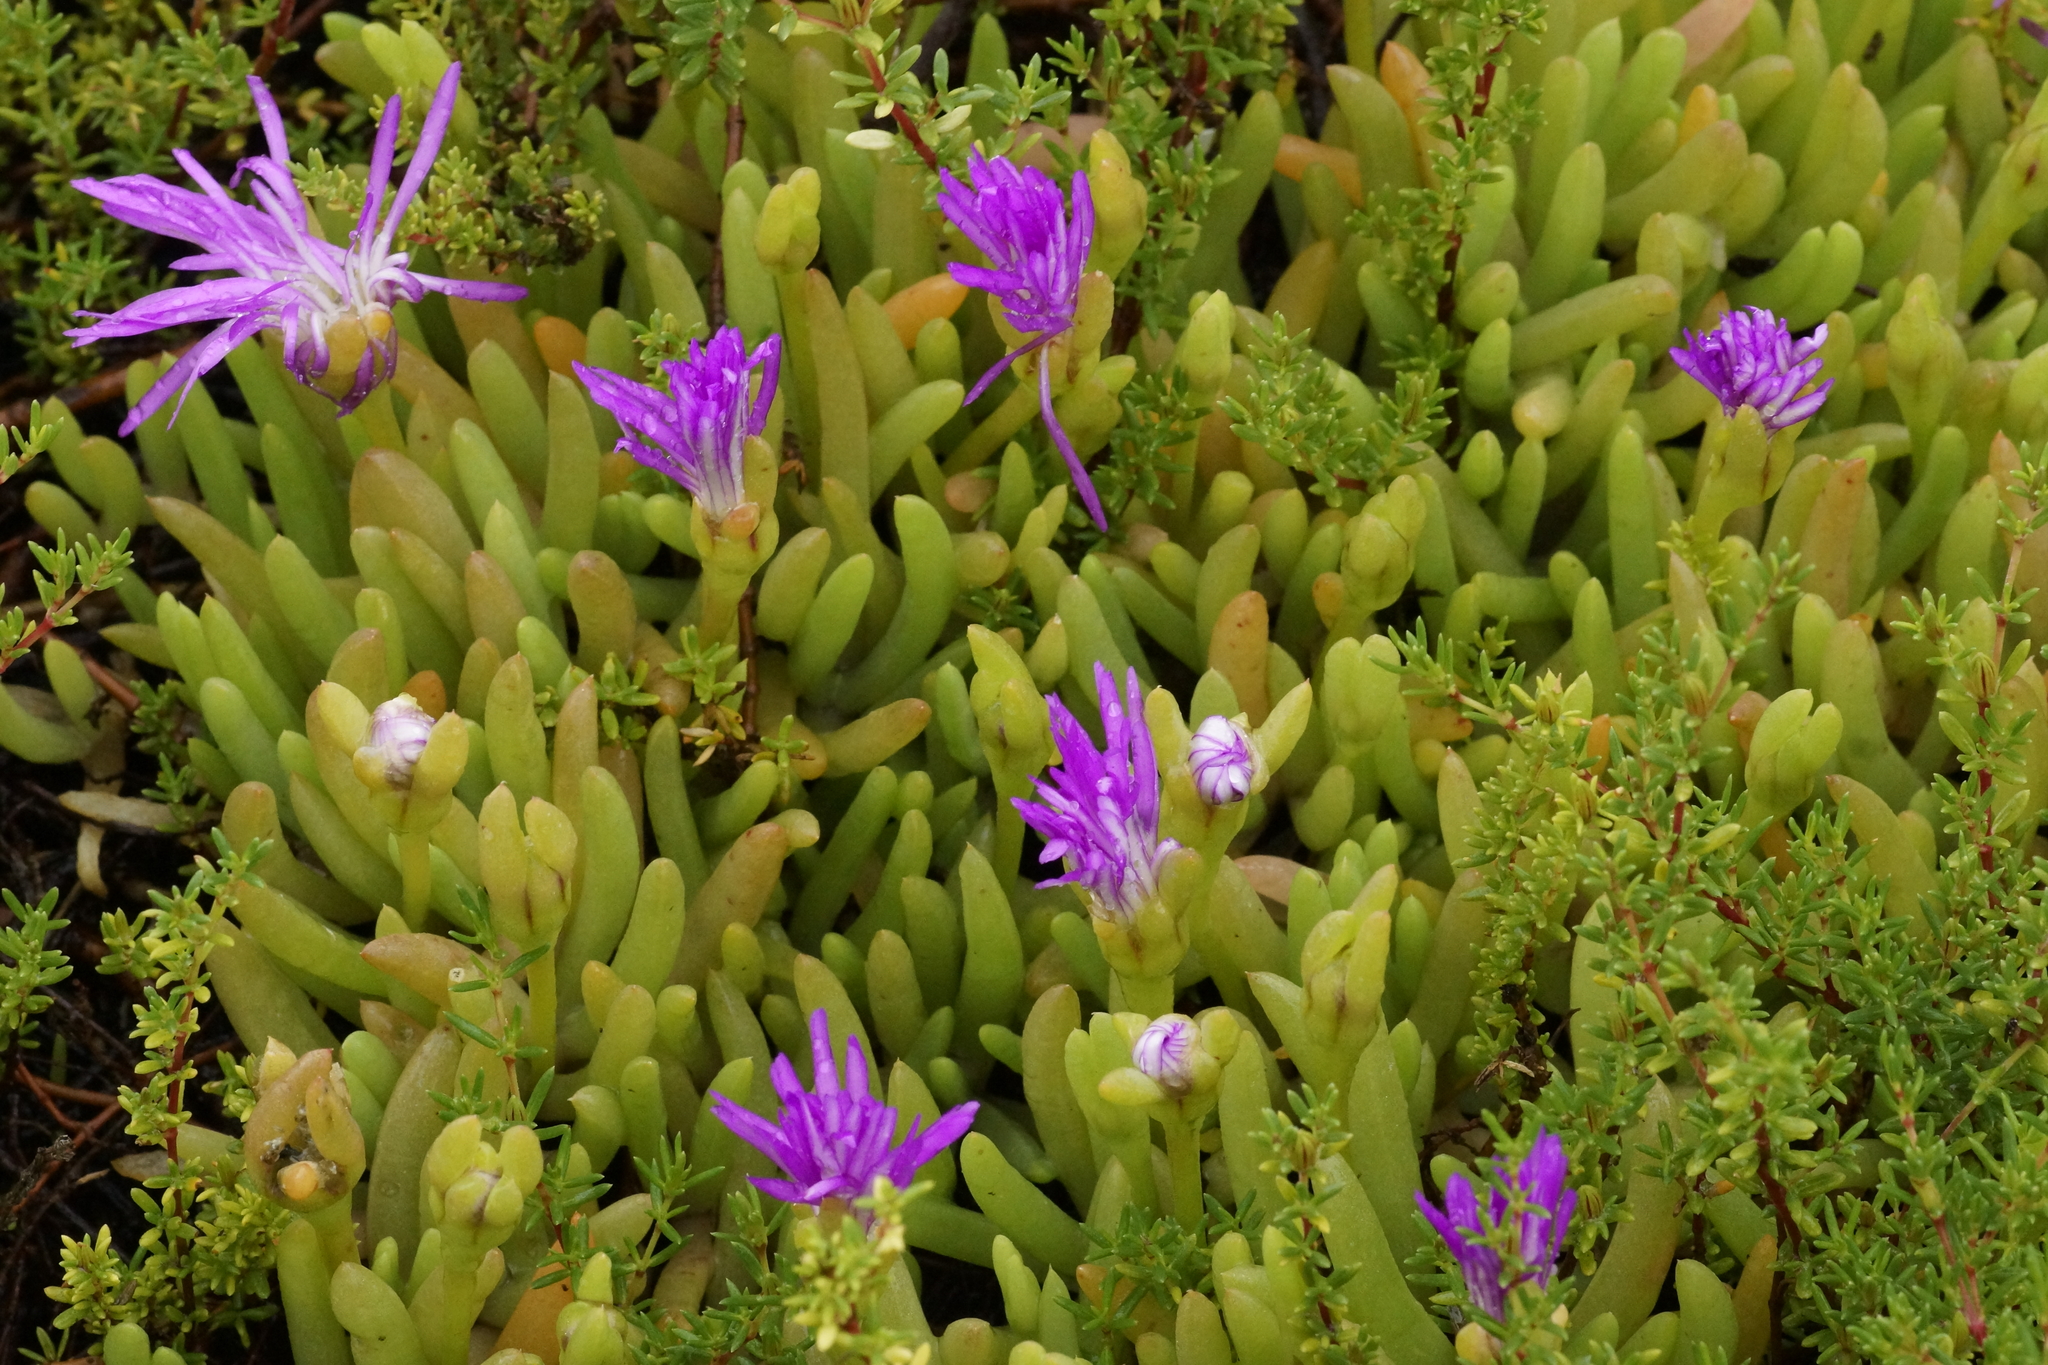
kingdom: Plantae
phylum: Tracheophyta
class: Magnoliopsida
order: Caryophyllales
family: Aizoaceae
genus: Disphyma
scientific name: Disphyma crassifolium
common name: Purple dewplant
